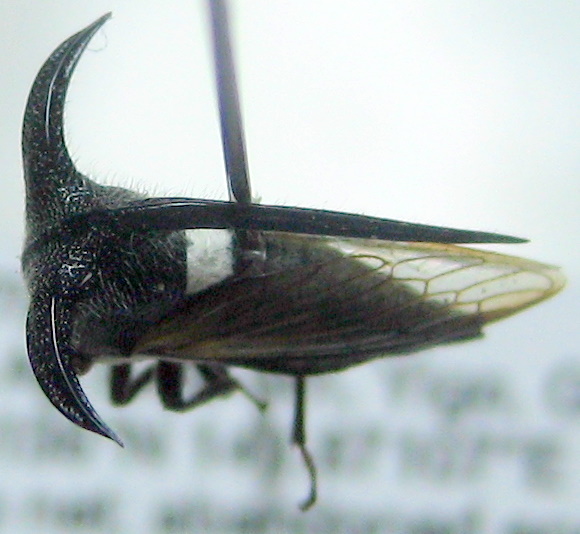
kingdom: Animalia
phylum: Arthropoda
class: Insecta
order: Hemiptera
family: Membracidae
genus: Leptocentrus
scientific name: Leptocentrus taurus
